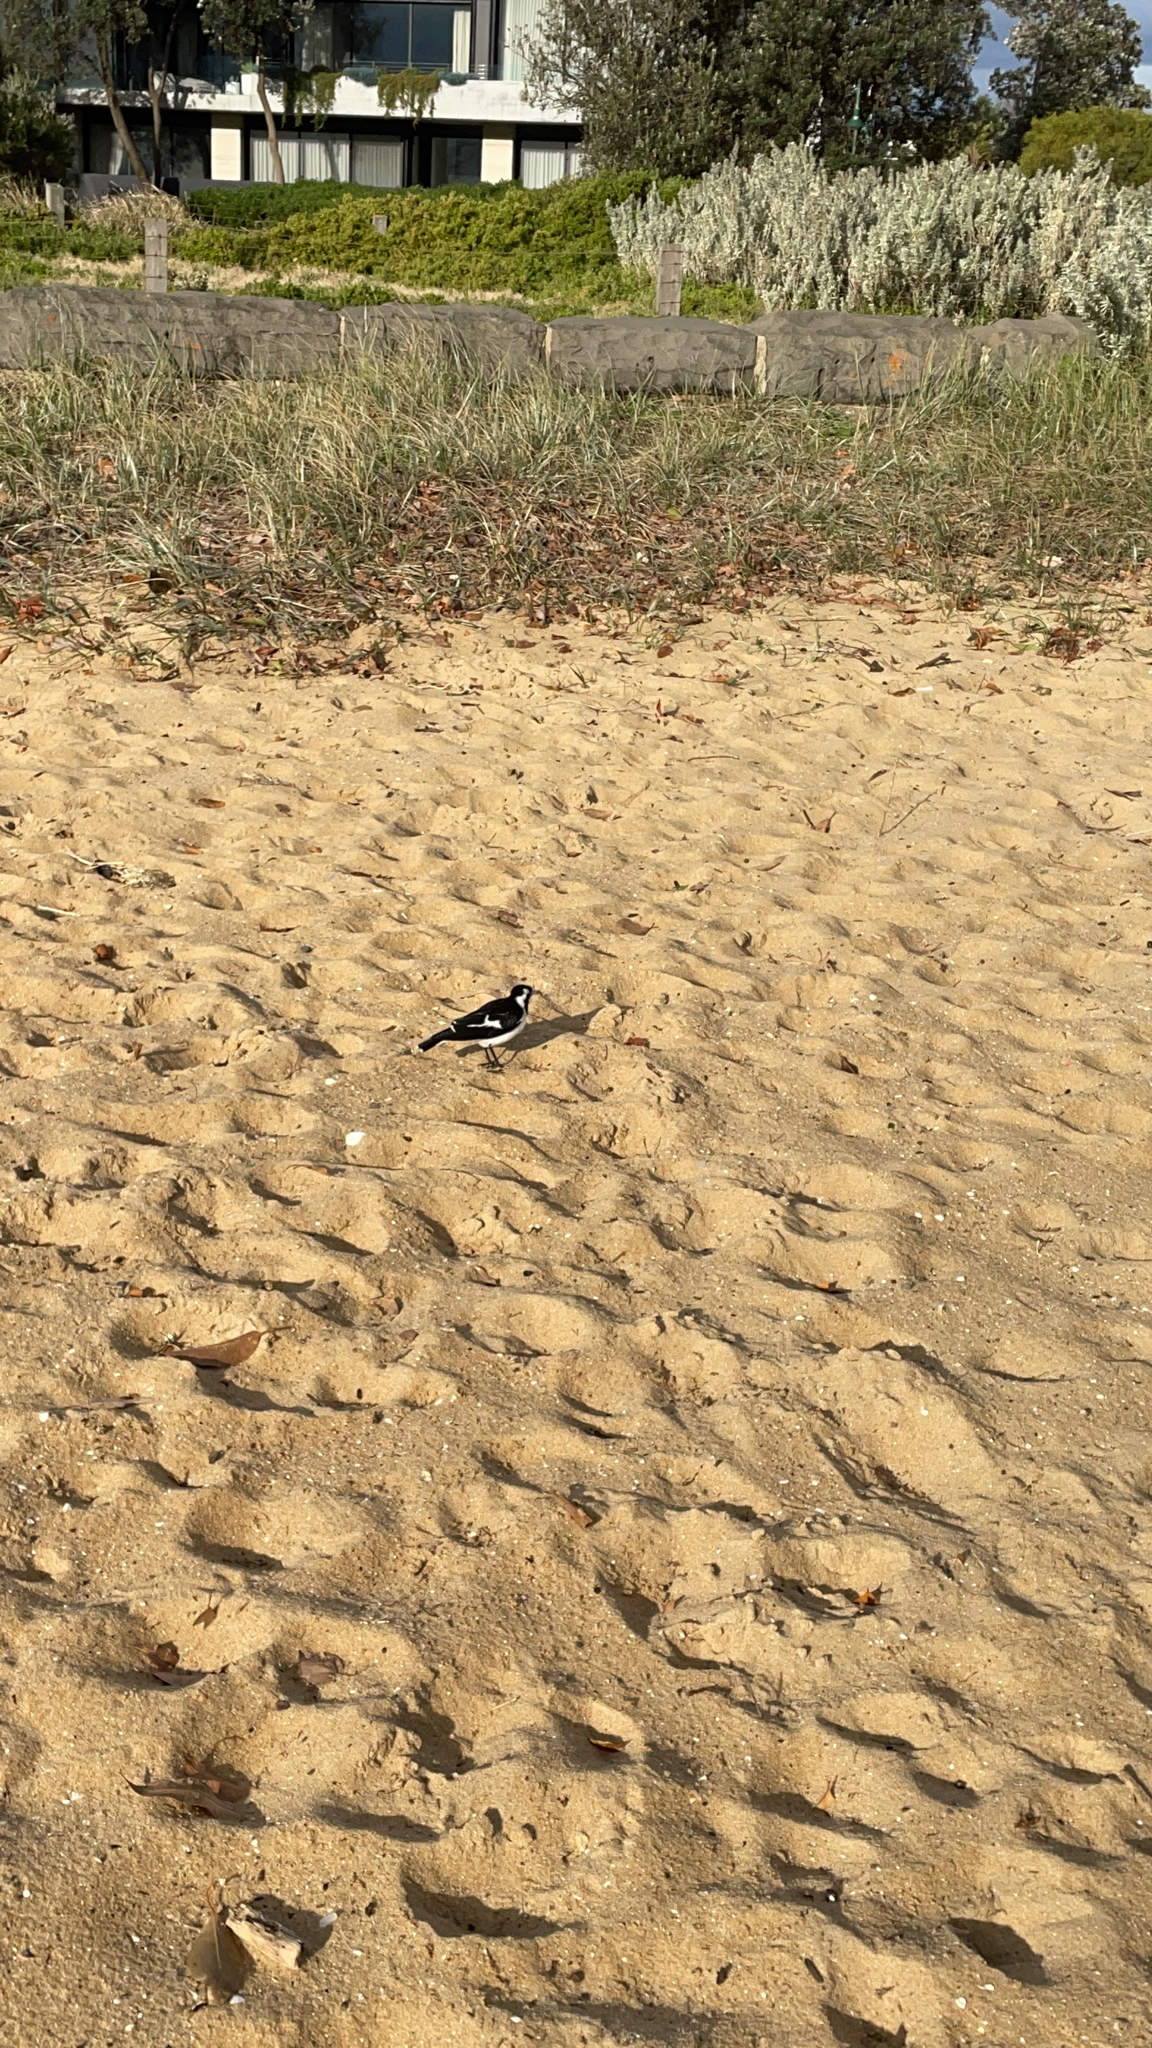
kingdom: Animalia
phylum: Chordata
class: Aves
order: Passeriformes
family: Monarchidae
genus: Grallina
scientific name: Grallina cyanoleuca
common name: Magpie-lark
